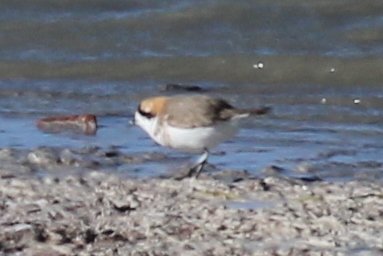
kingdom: Animalia
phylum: Chordata
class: Aves
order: Charadriiformes
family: Charadriidae
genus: Anarhynchus
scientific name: Anarhynchus
